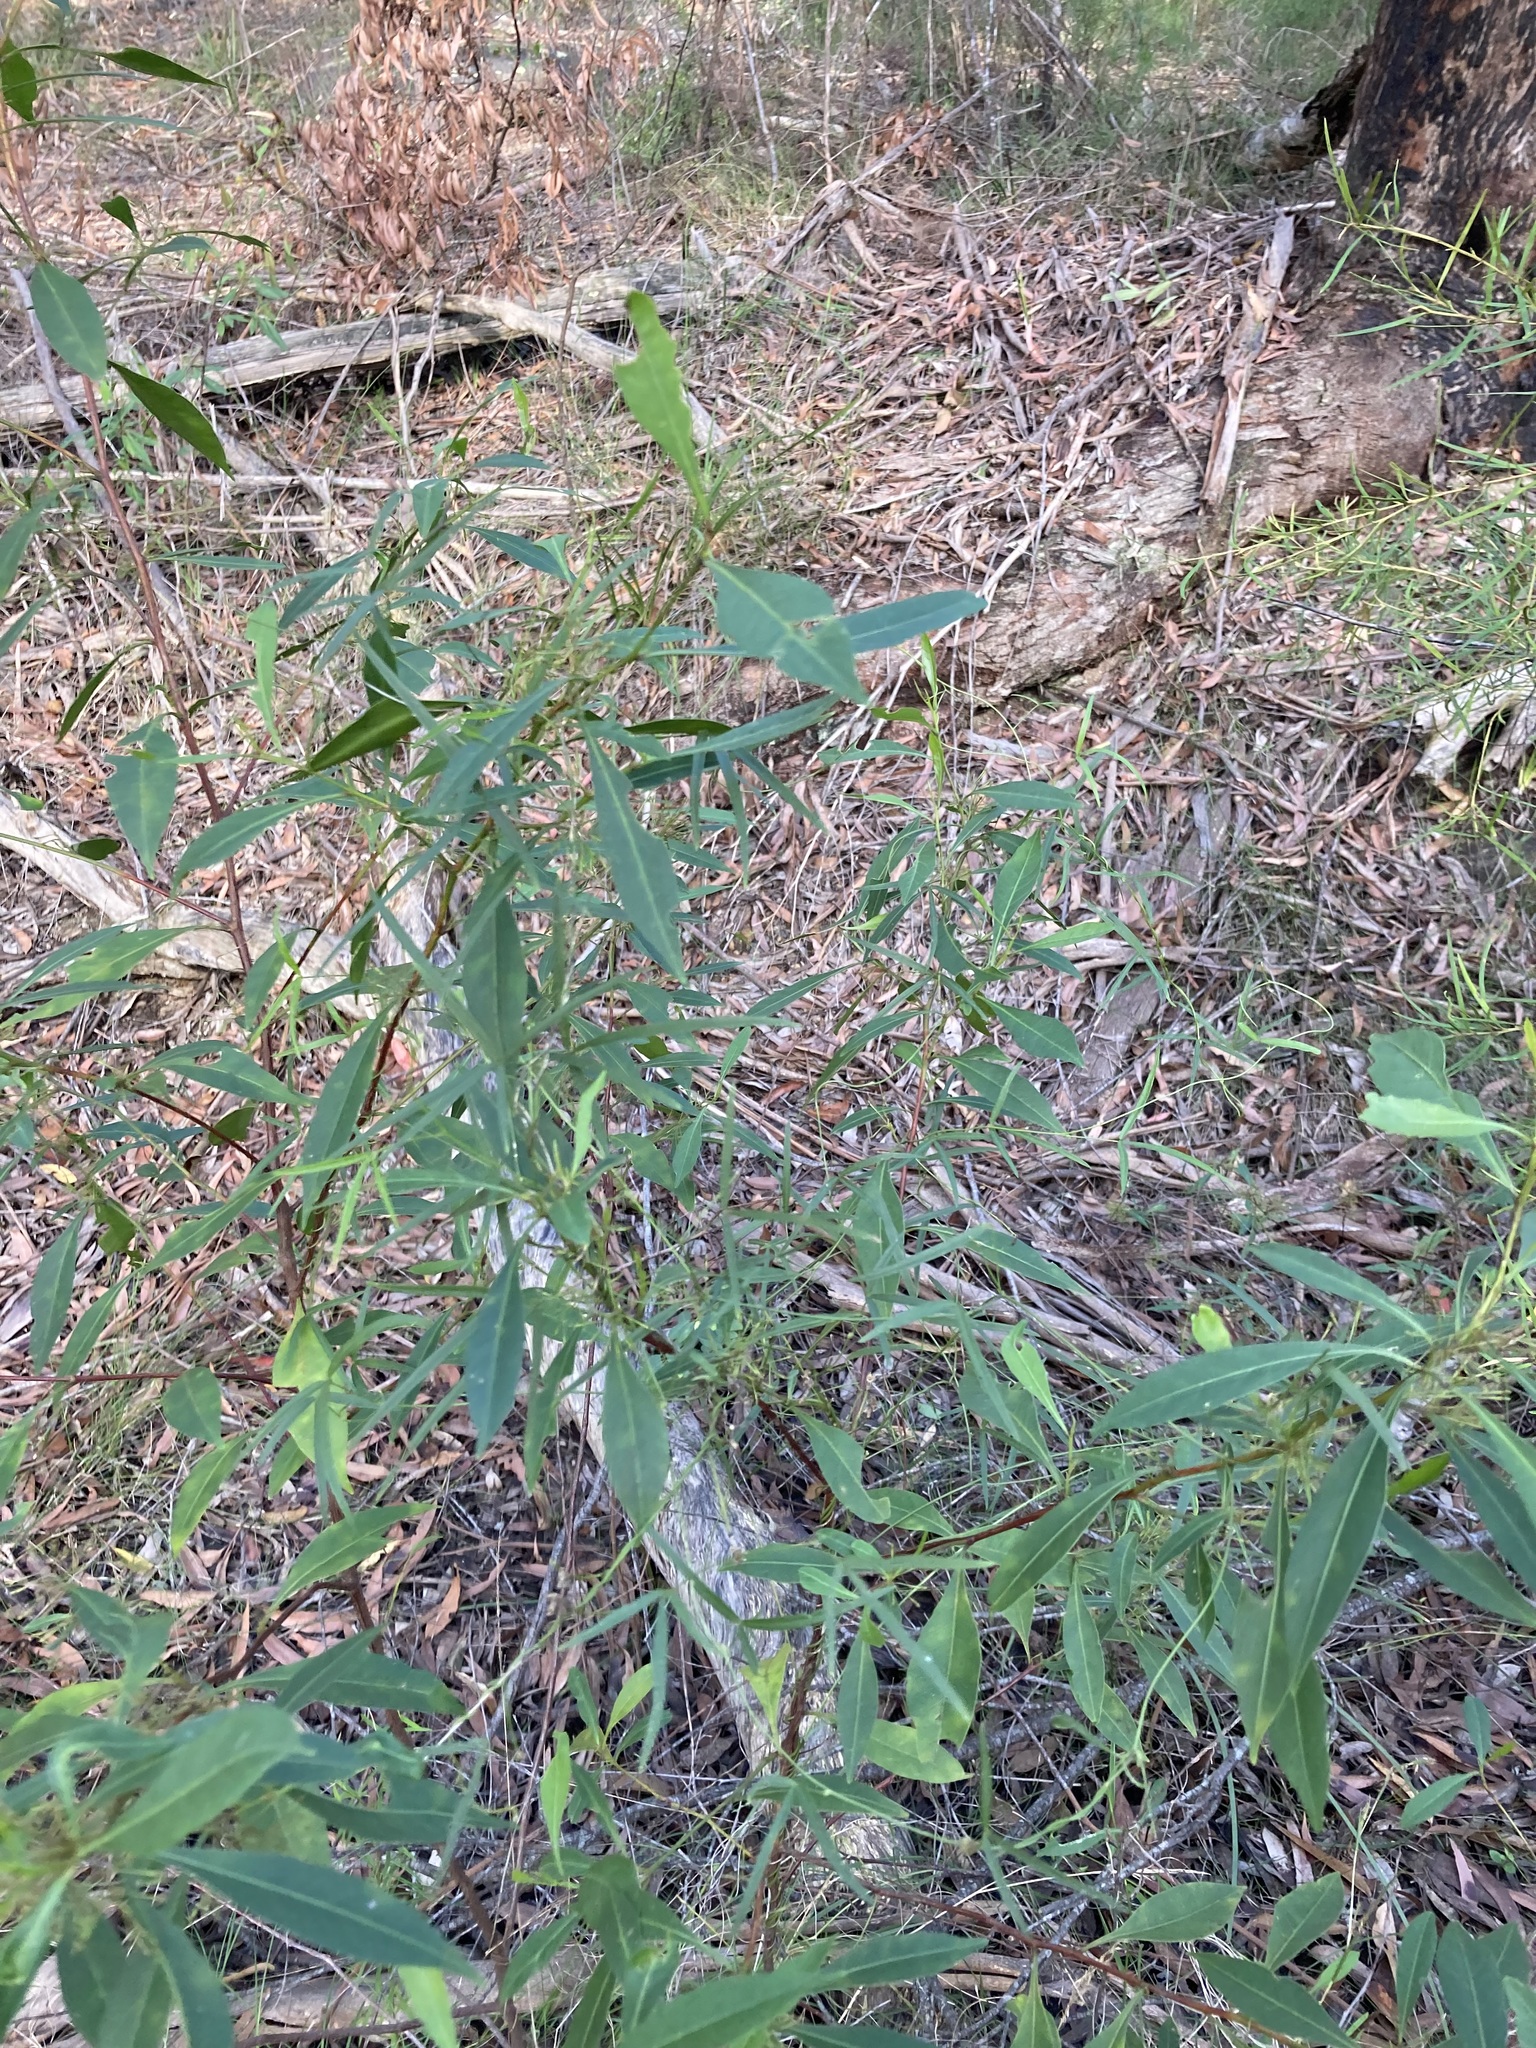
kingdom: Plantae
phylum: Tracheophyta
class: Magnoliopsida
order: Fabales
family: Fabaceae
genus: Glycine
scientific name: Glycine clandestina
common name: Twining glycine
